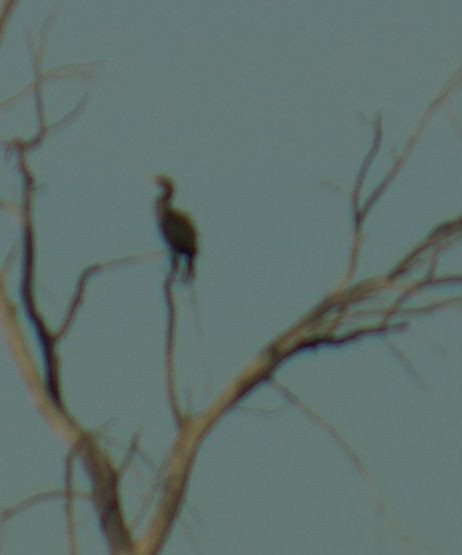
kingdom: Animalia
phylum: Chordata
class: Aves
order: Suliformes
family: Phalacrocoracidae
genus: Phalacrocorax
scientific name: Phalacrocorax auritus
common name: Double-crested cormorant
